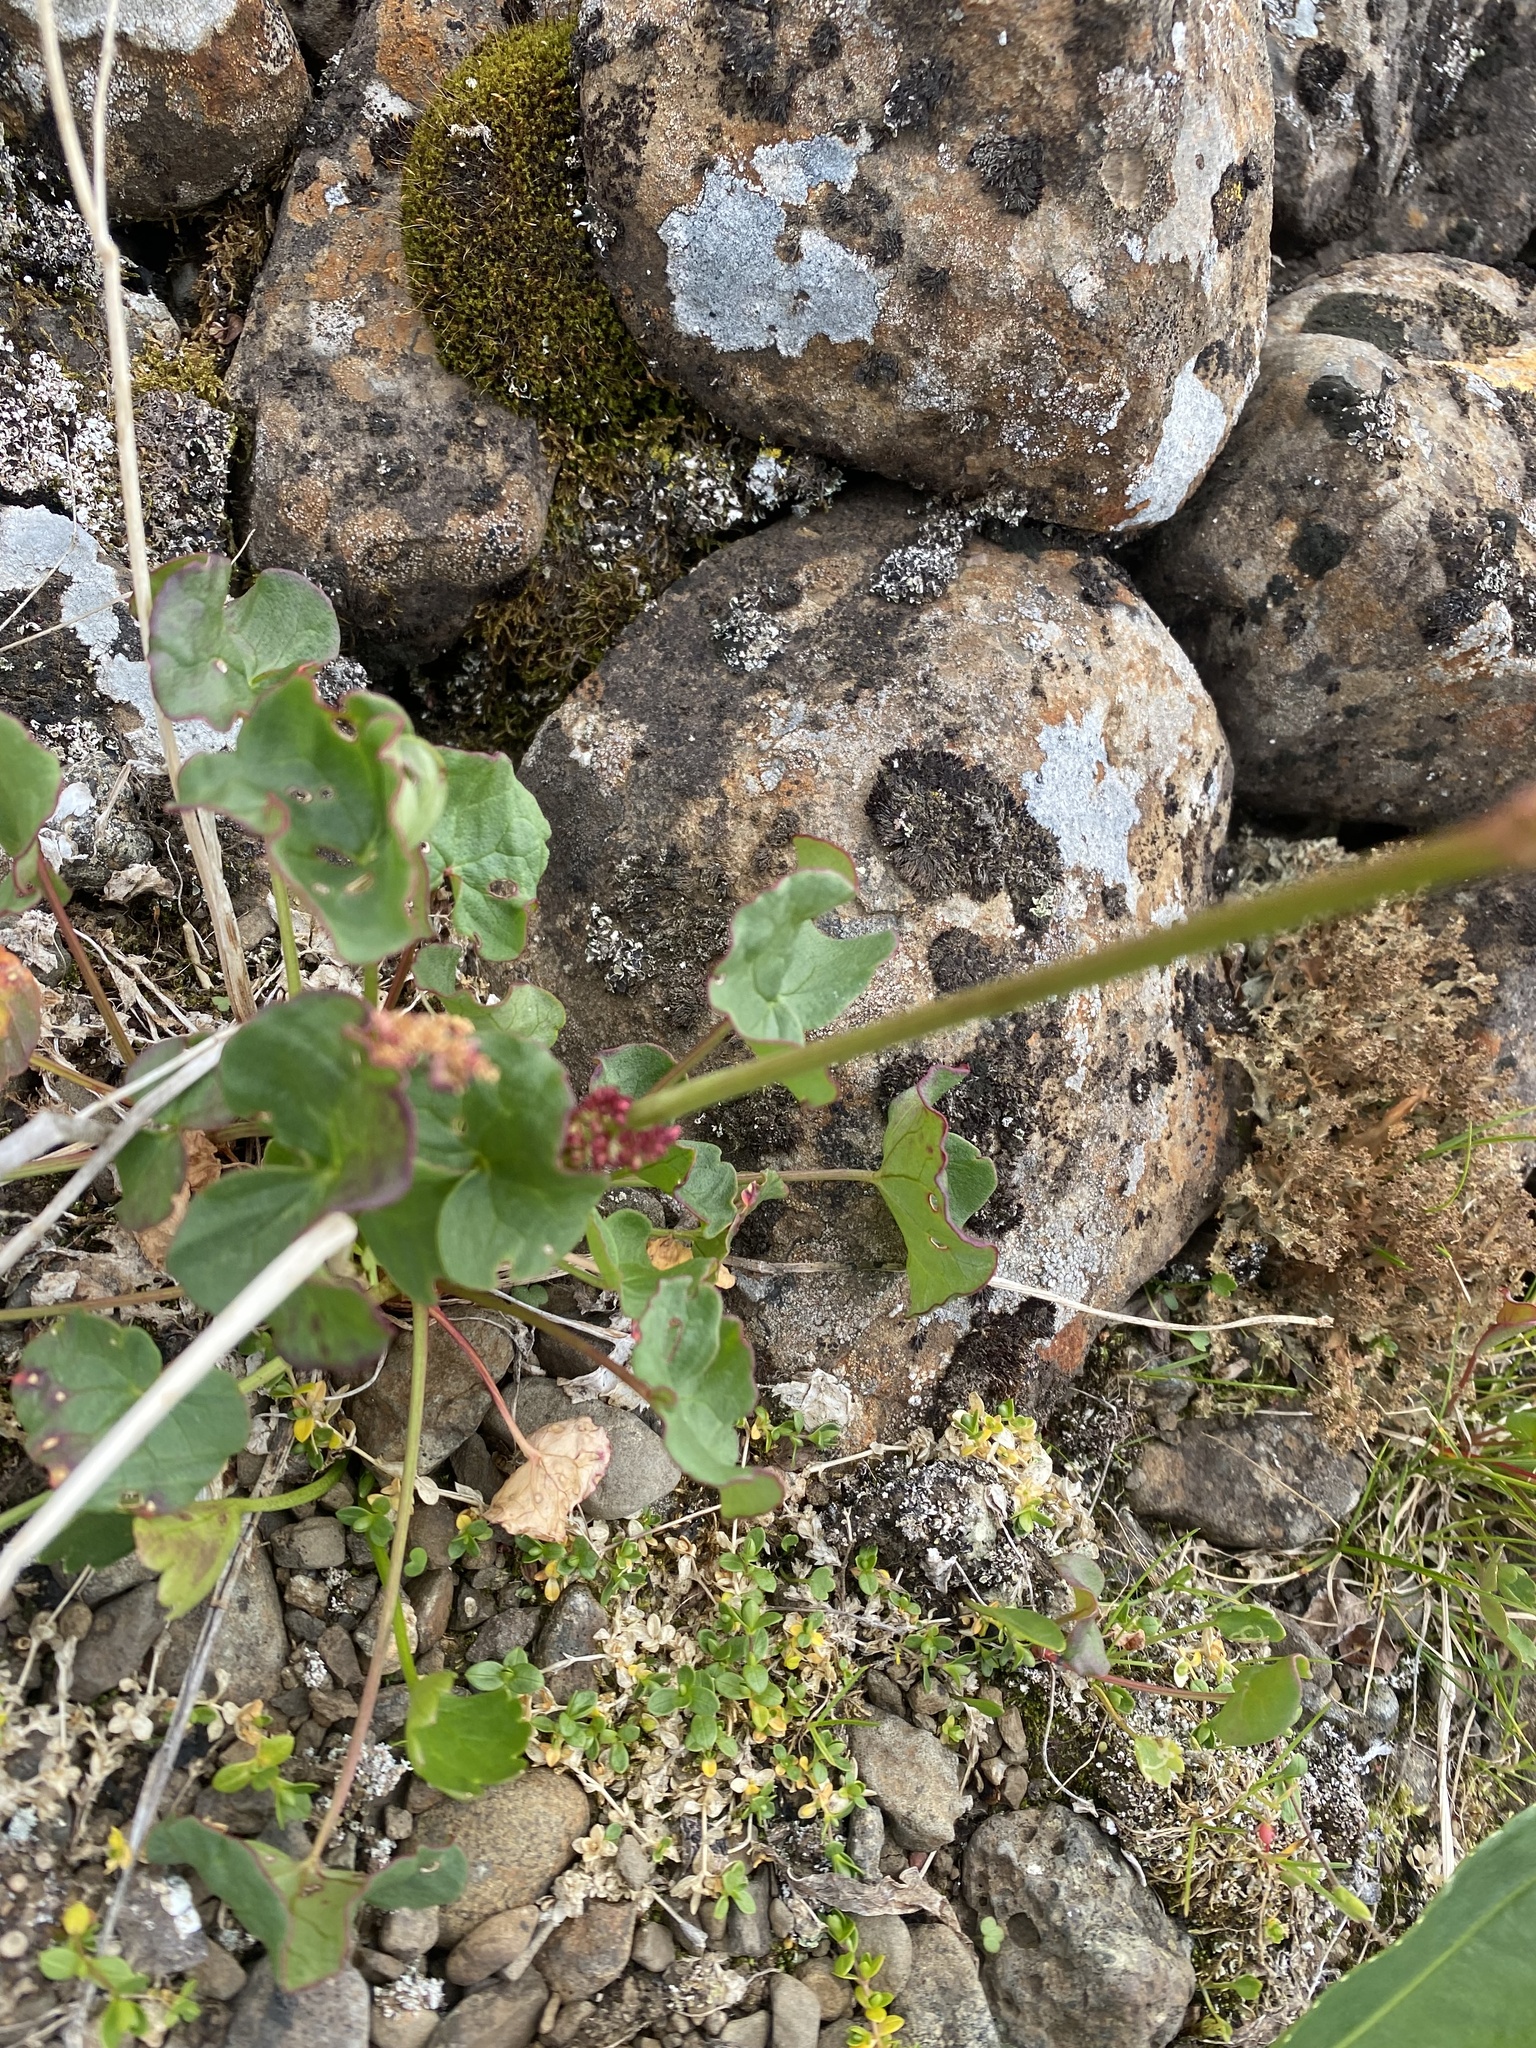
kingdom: Plantae
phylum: Tracheophyta
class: Magnoliopsida
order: Caryophyllales
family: Polygonaceae
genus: Oxyria
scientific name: Oxyria digyna
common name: Alpine mountain-sorrel
